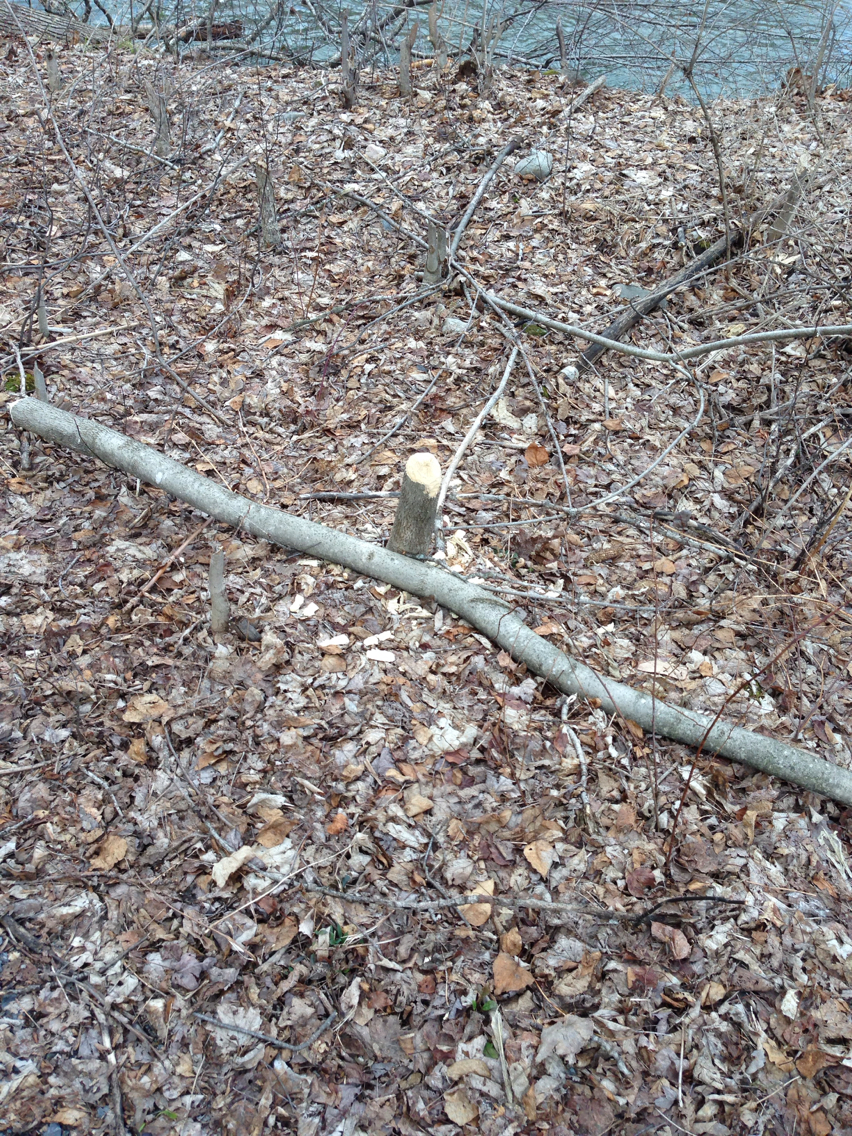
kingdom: Animalia
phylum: Chordata
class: Mammalia
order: Rodentia
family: Castoridae
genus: Castor
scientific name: Castor canadensis
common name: American beaver
